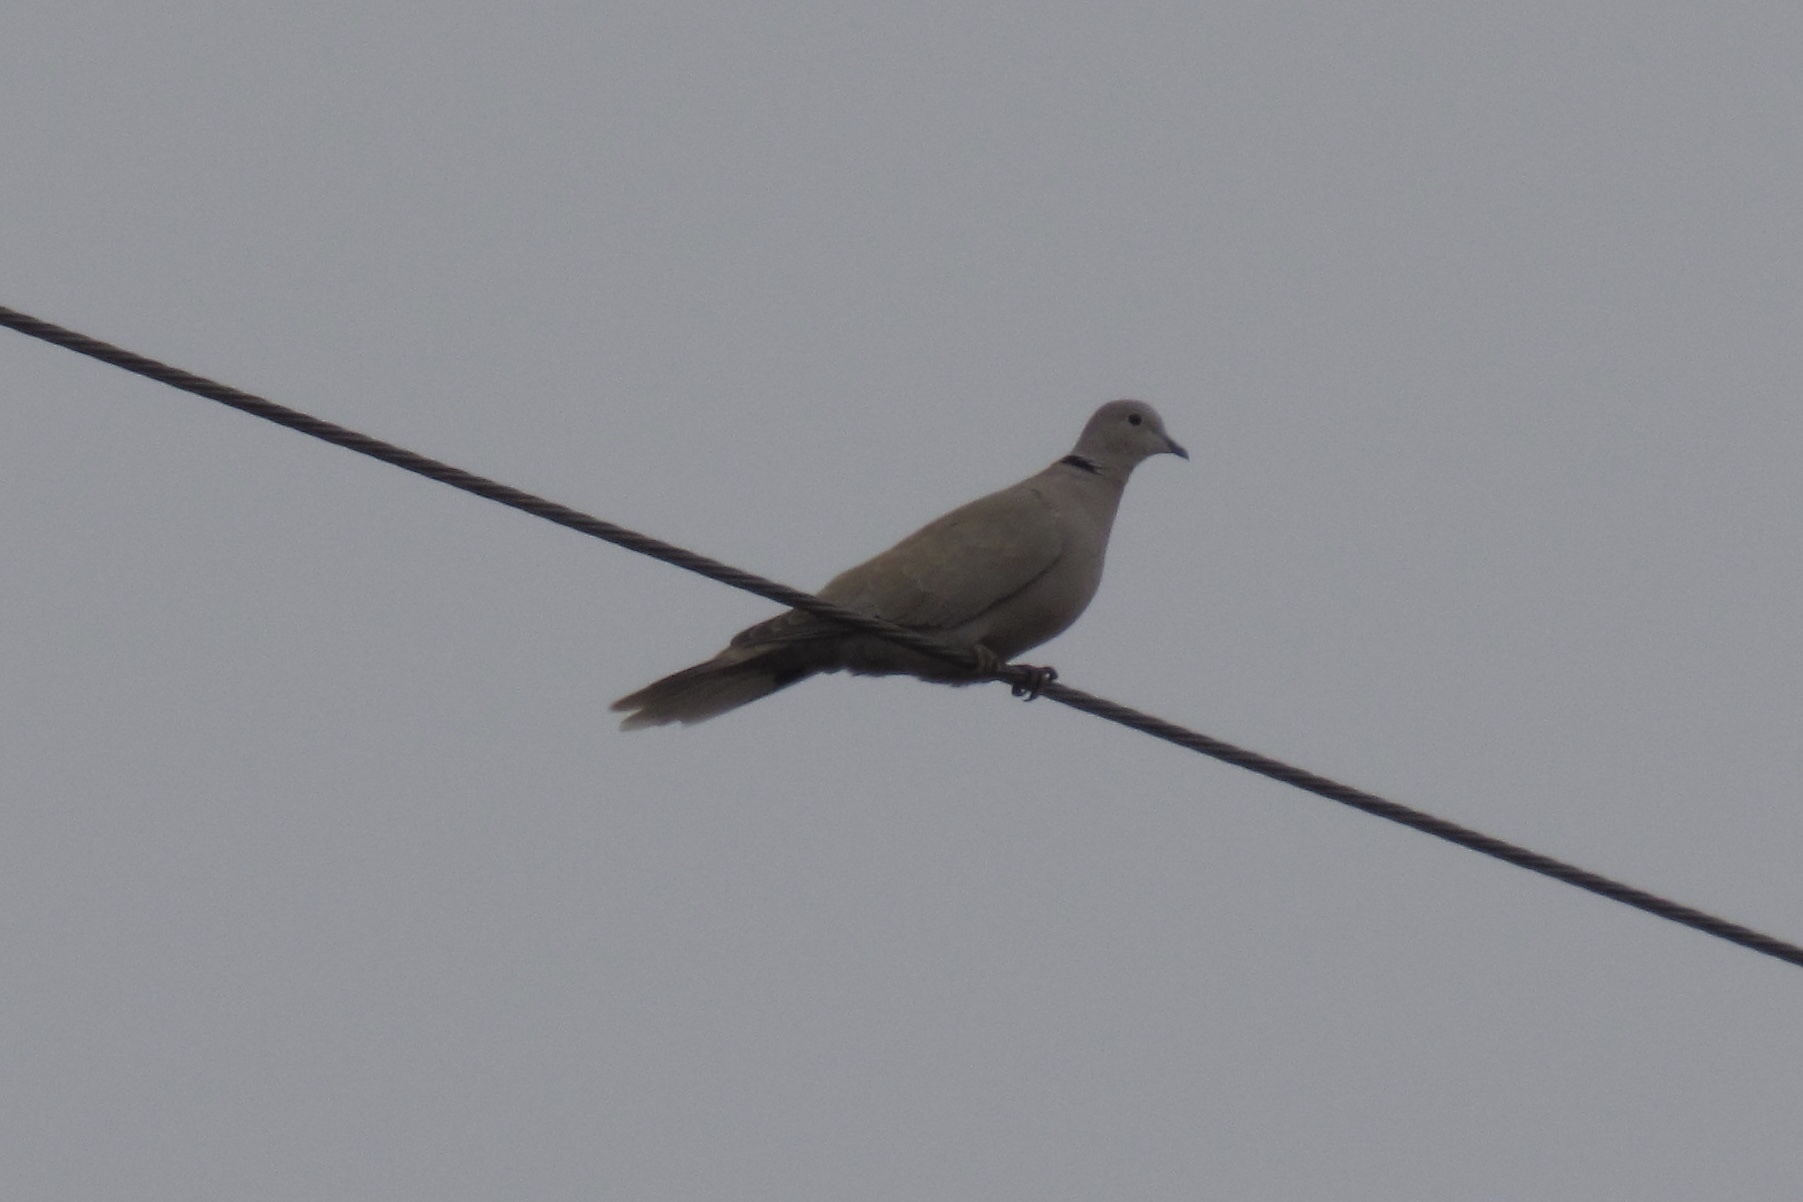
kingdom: Animalia
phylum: Chordata
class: Aves
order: Columbiformes
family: Columbidae
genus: Streptopelia
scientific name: Streptopelia decaocto
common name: Eurasian collared dove
